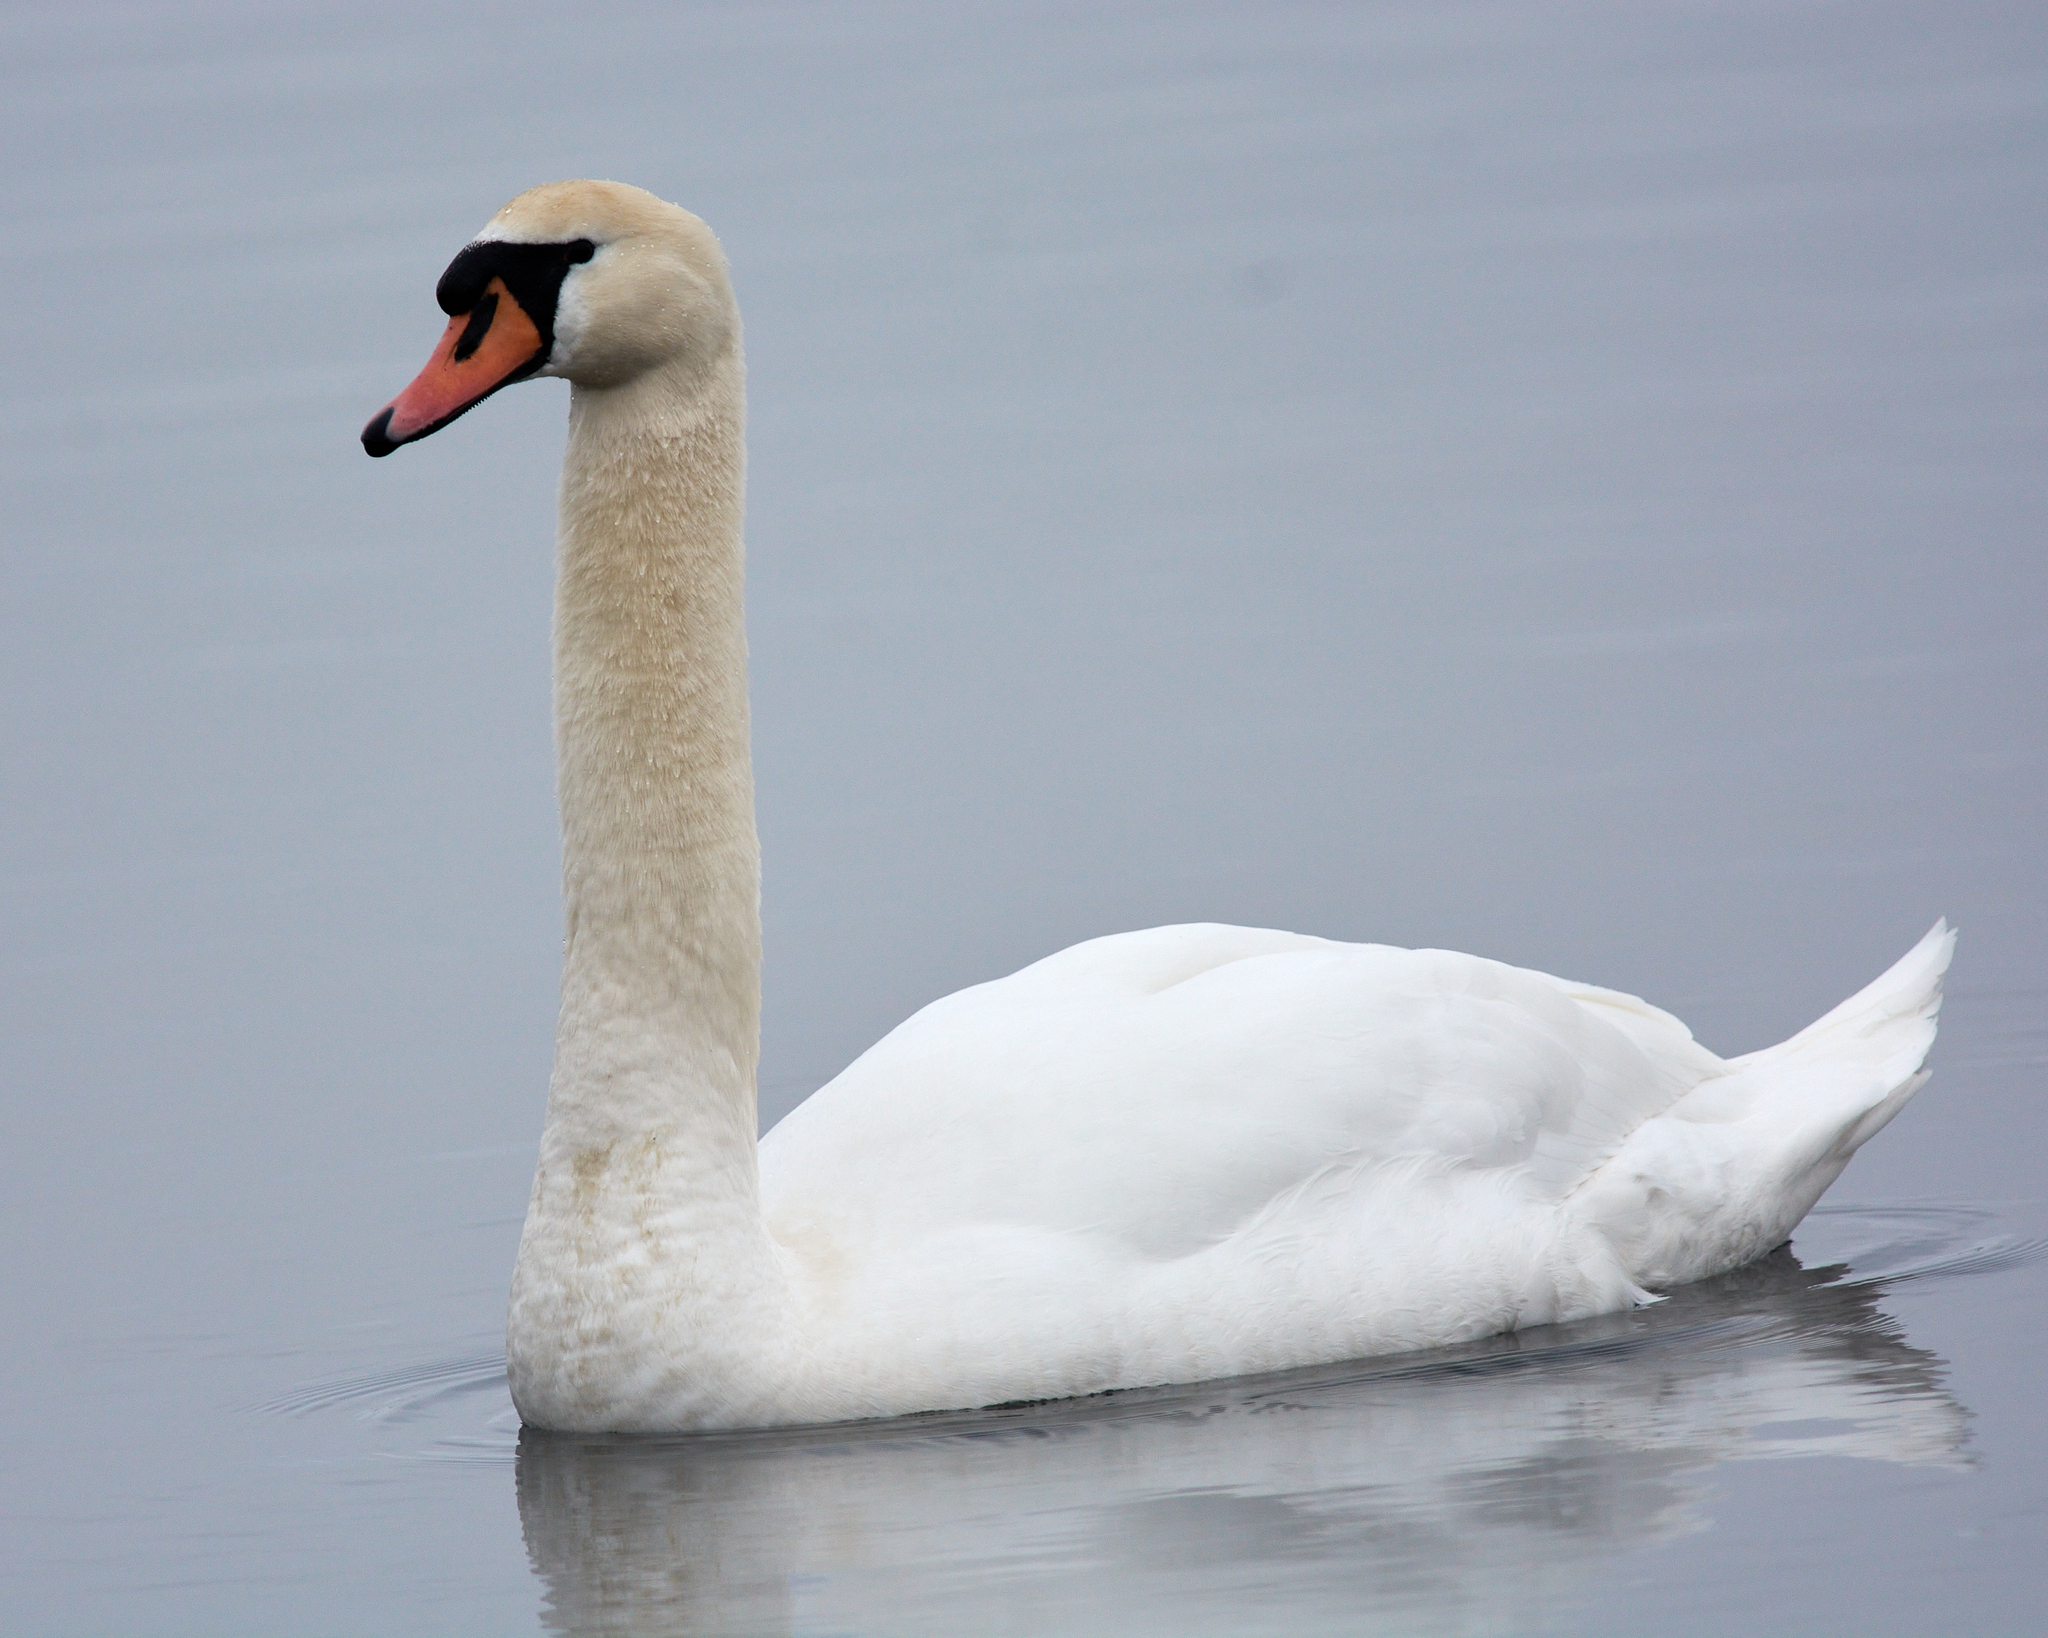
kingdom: Animalia
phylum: Chordata
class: Aves
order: Anseriformes
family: Anatidae
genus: Cygnus
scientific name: Cygnus olor
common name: Mute swan
